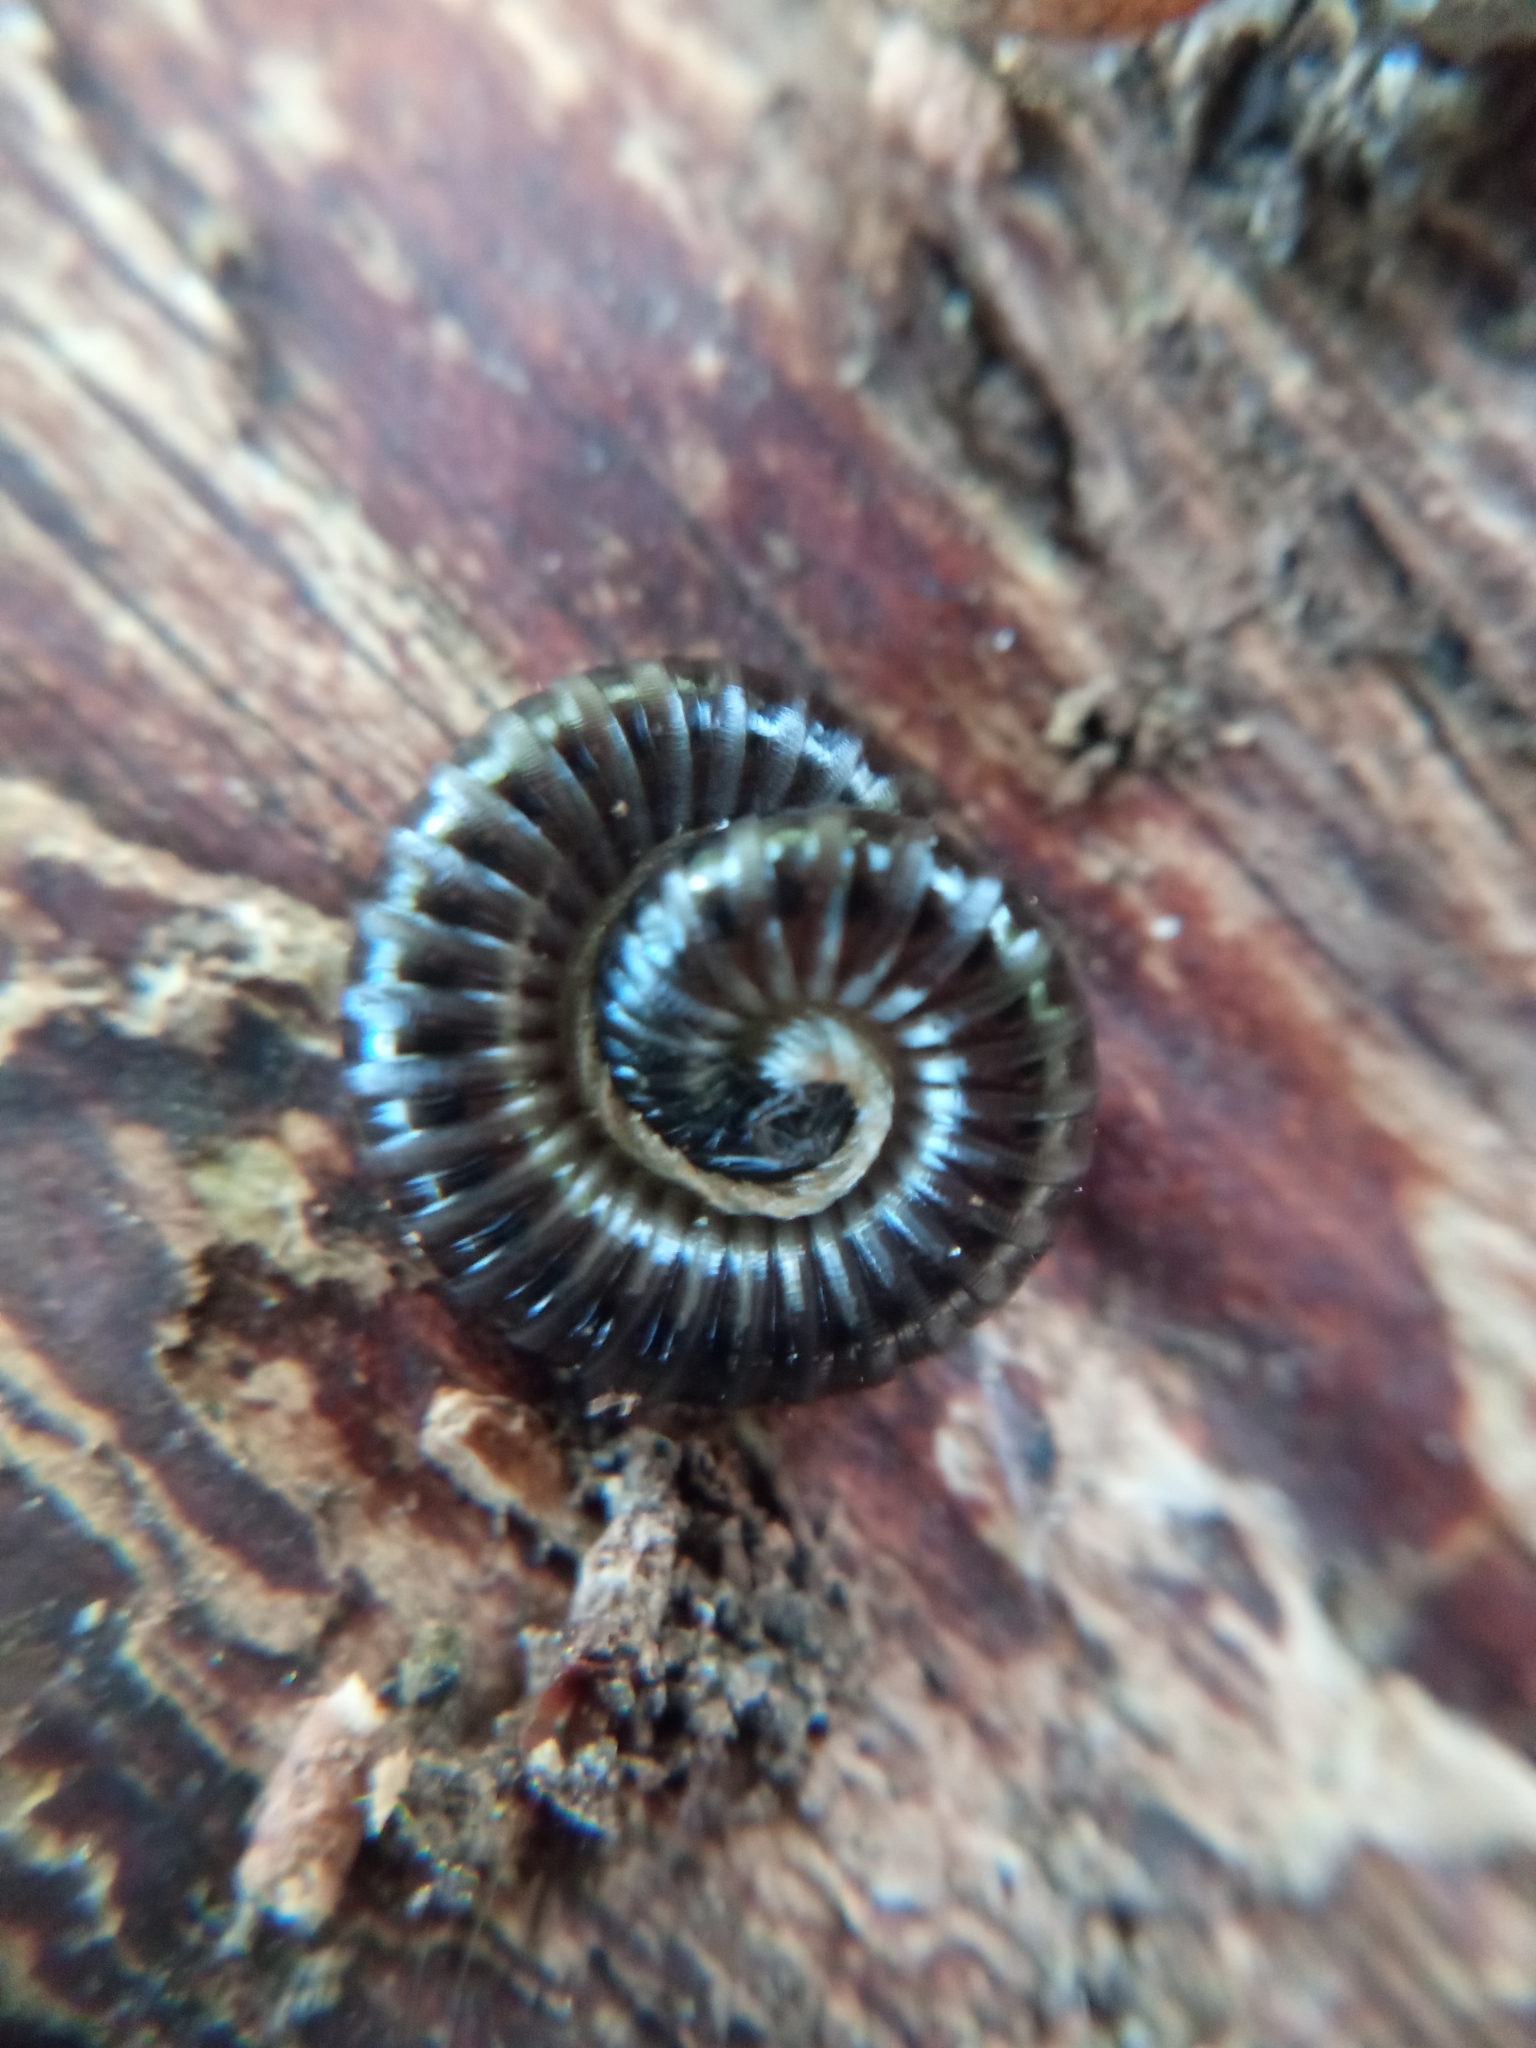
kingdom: Animalia
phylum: Arthropoda
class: Diplopoda
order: Julida
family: Julidae
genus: Tachypodoiulus
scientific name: Tachypodoiulus niger
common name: White-legged snake millipede
